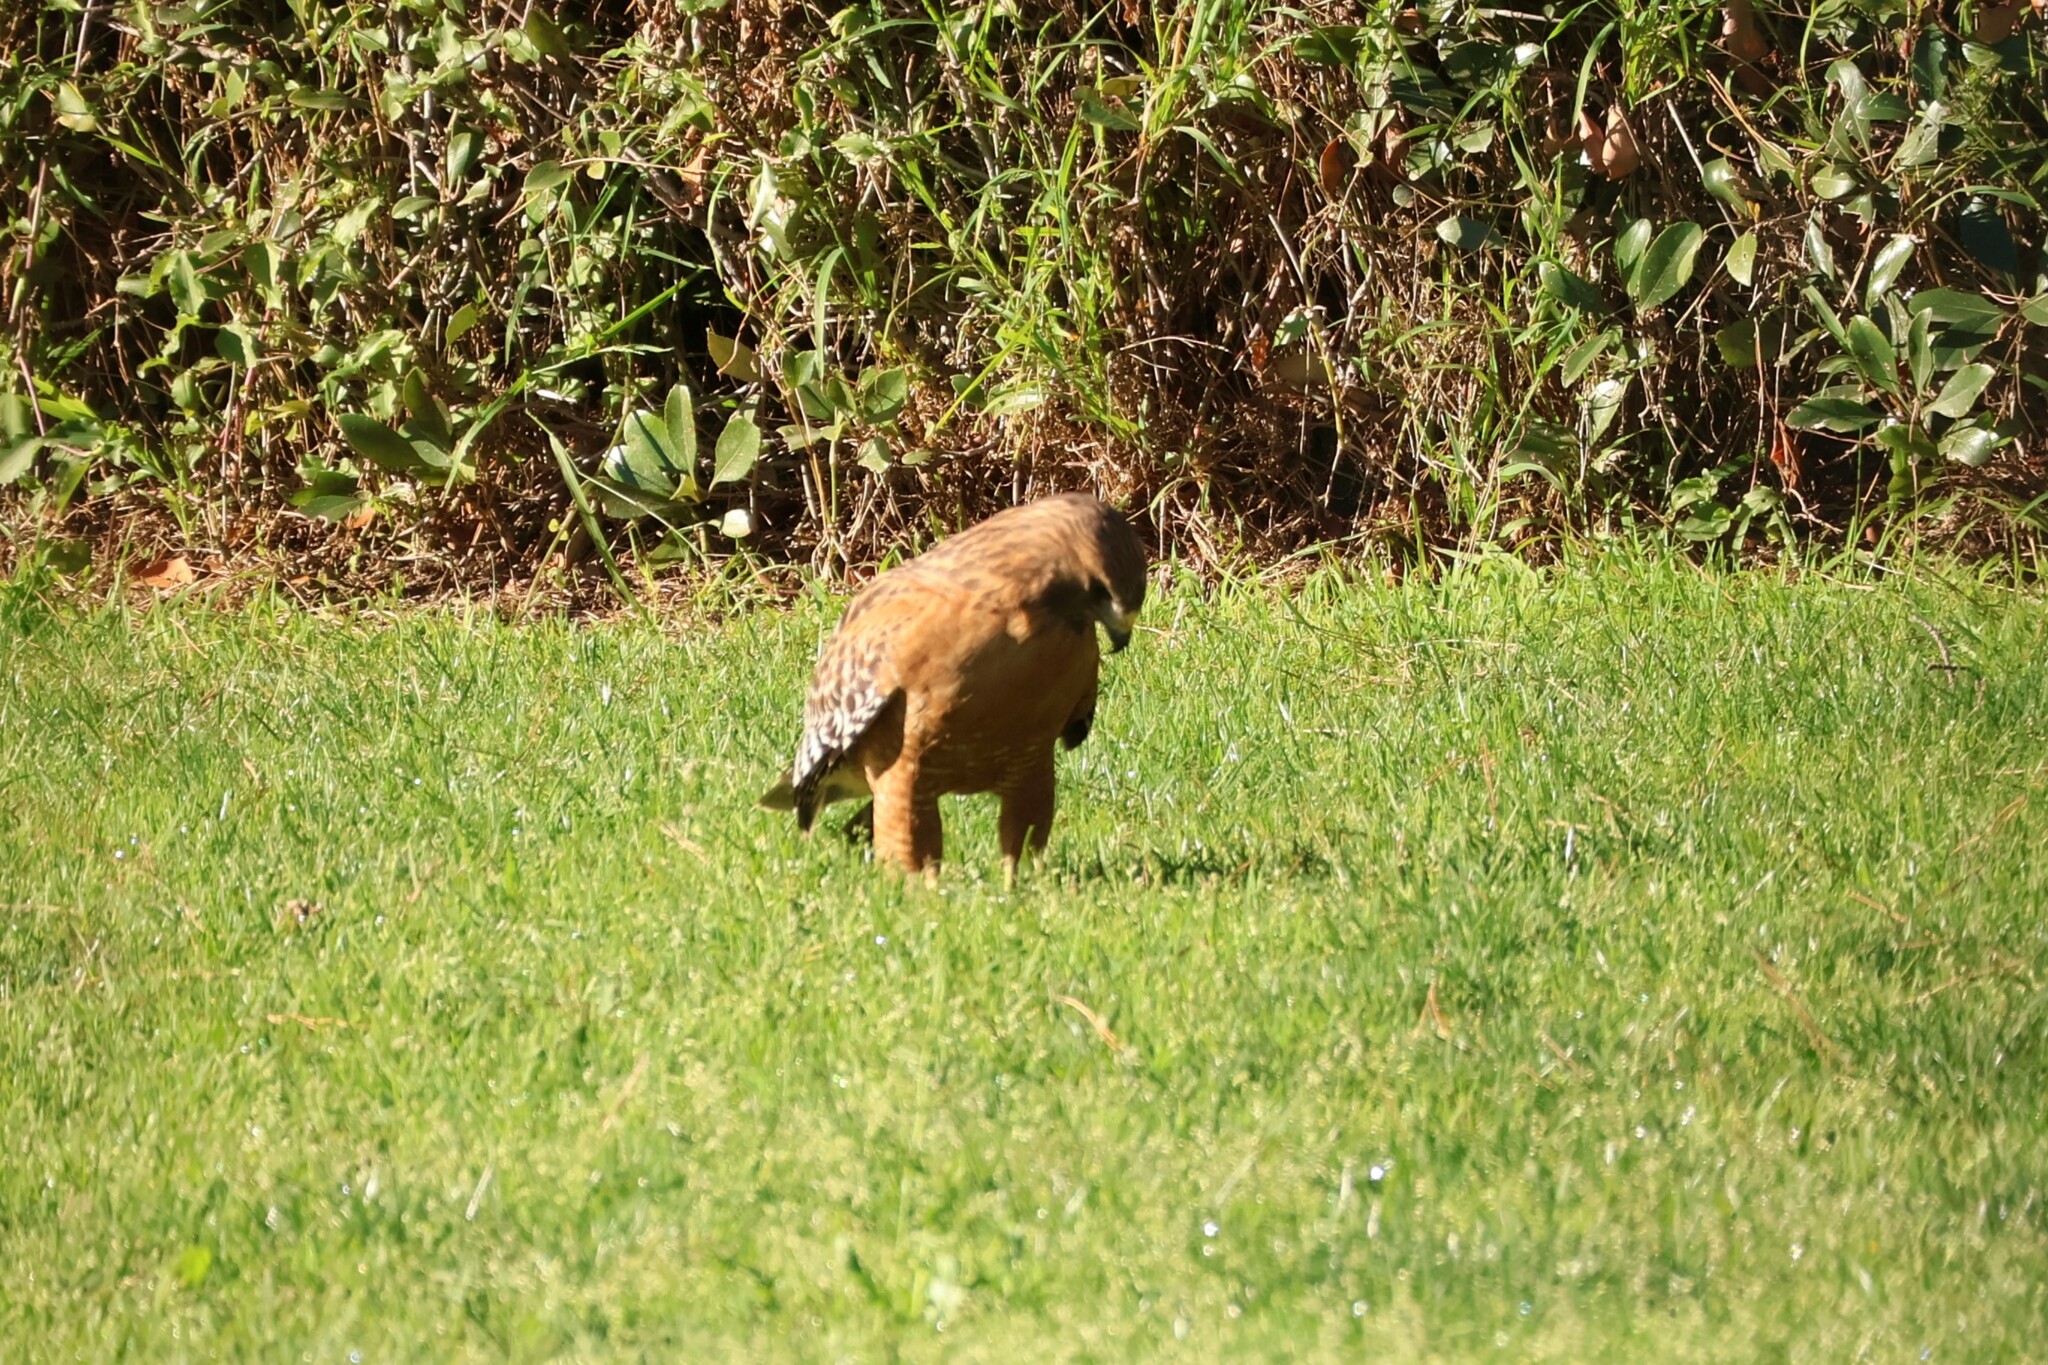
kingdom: Animalia
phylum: Chordata
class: Aves
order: Accipitriformes
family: Accipitridae
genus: Buteo
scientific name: Buteo lineatus
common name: Red-shouldered hawk
